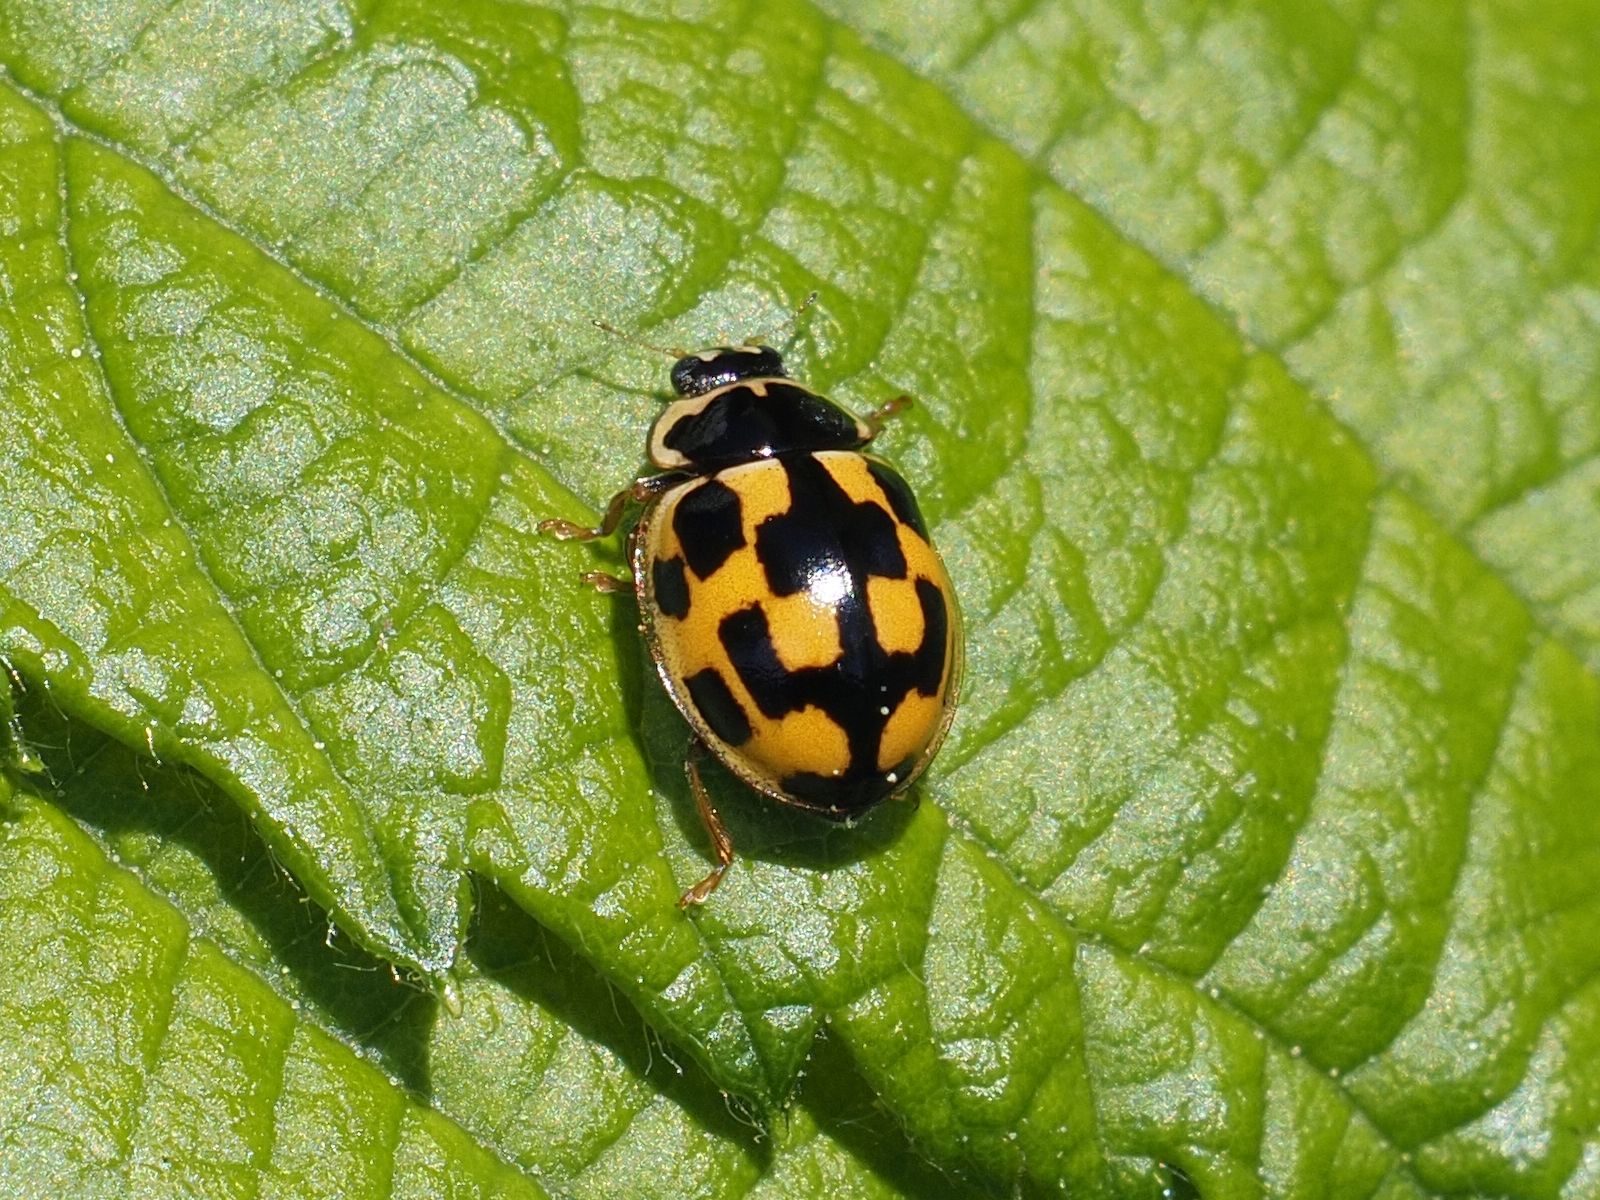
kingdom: Animalia
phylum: Arthropoda
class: Insecta
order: Coleoptera
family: Coccinellidae
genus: Propylaea
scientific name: Propylaea quatuordecimpunctata
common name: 14-spotted ladybird beetle
